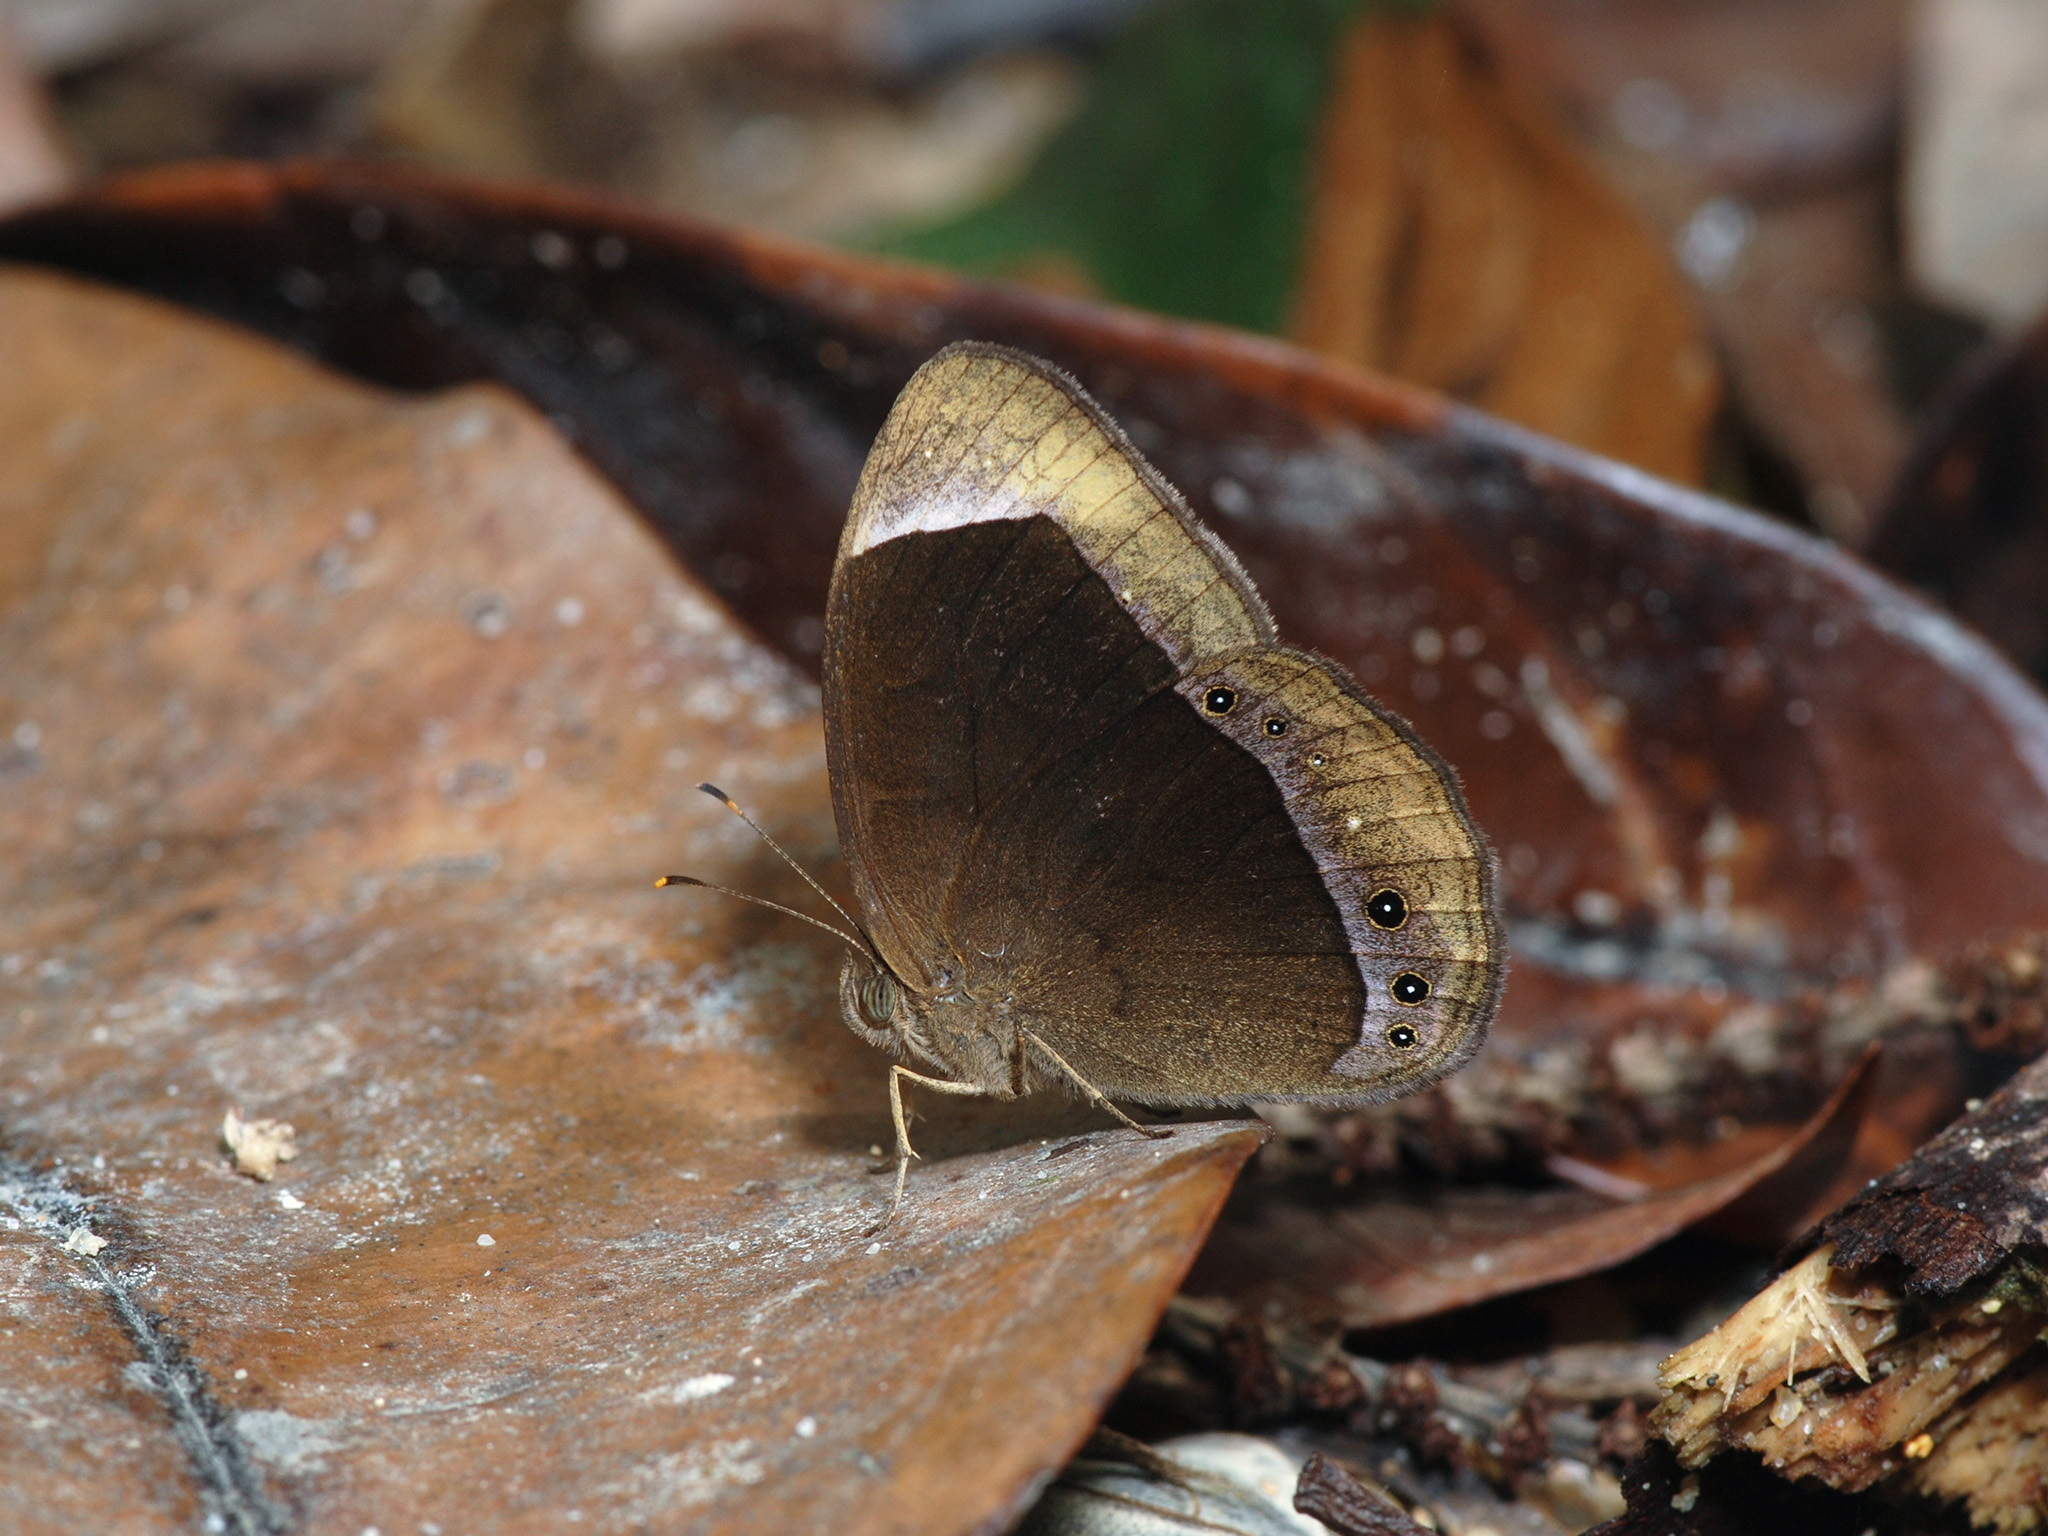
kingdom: Animalia
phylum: Arthropoda
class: Insecta
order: Lepidoptera
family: Nymphalidae
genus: Mycalesis
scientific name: Mycalesis anaxias
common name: White-bar bushbrown
